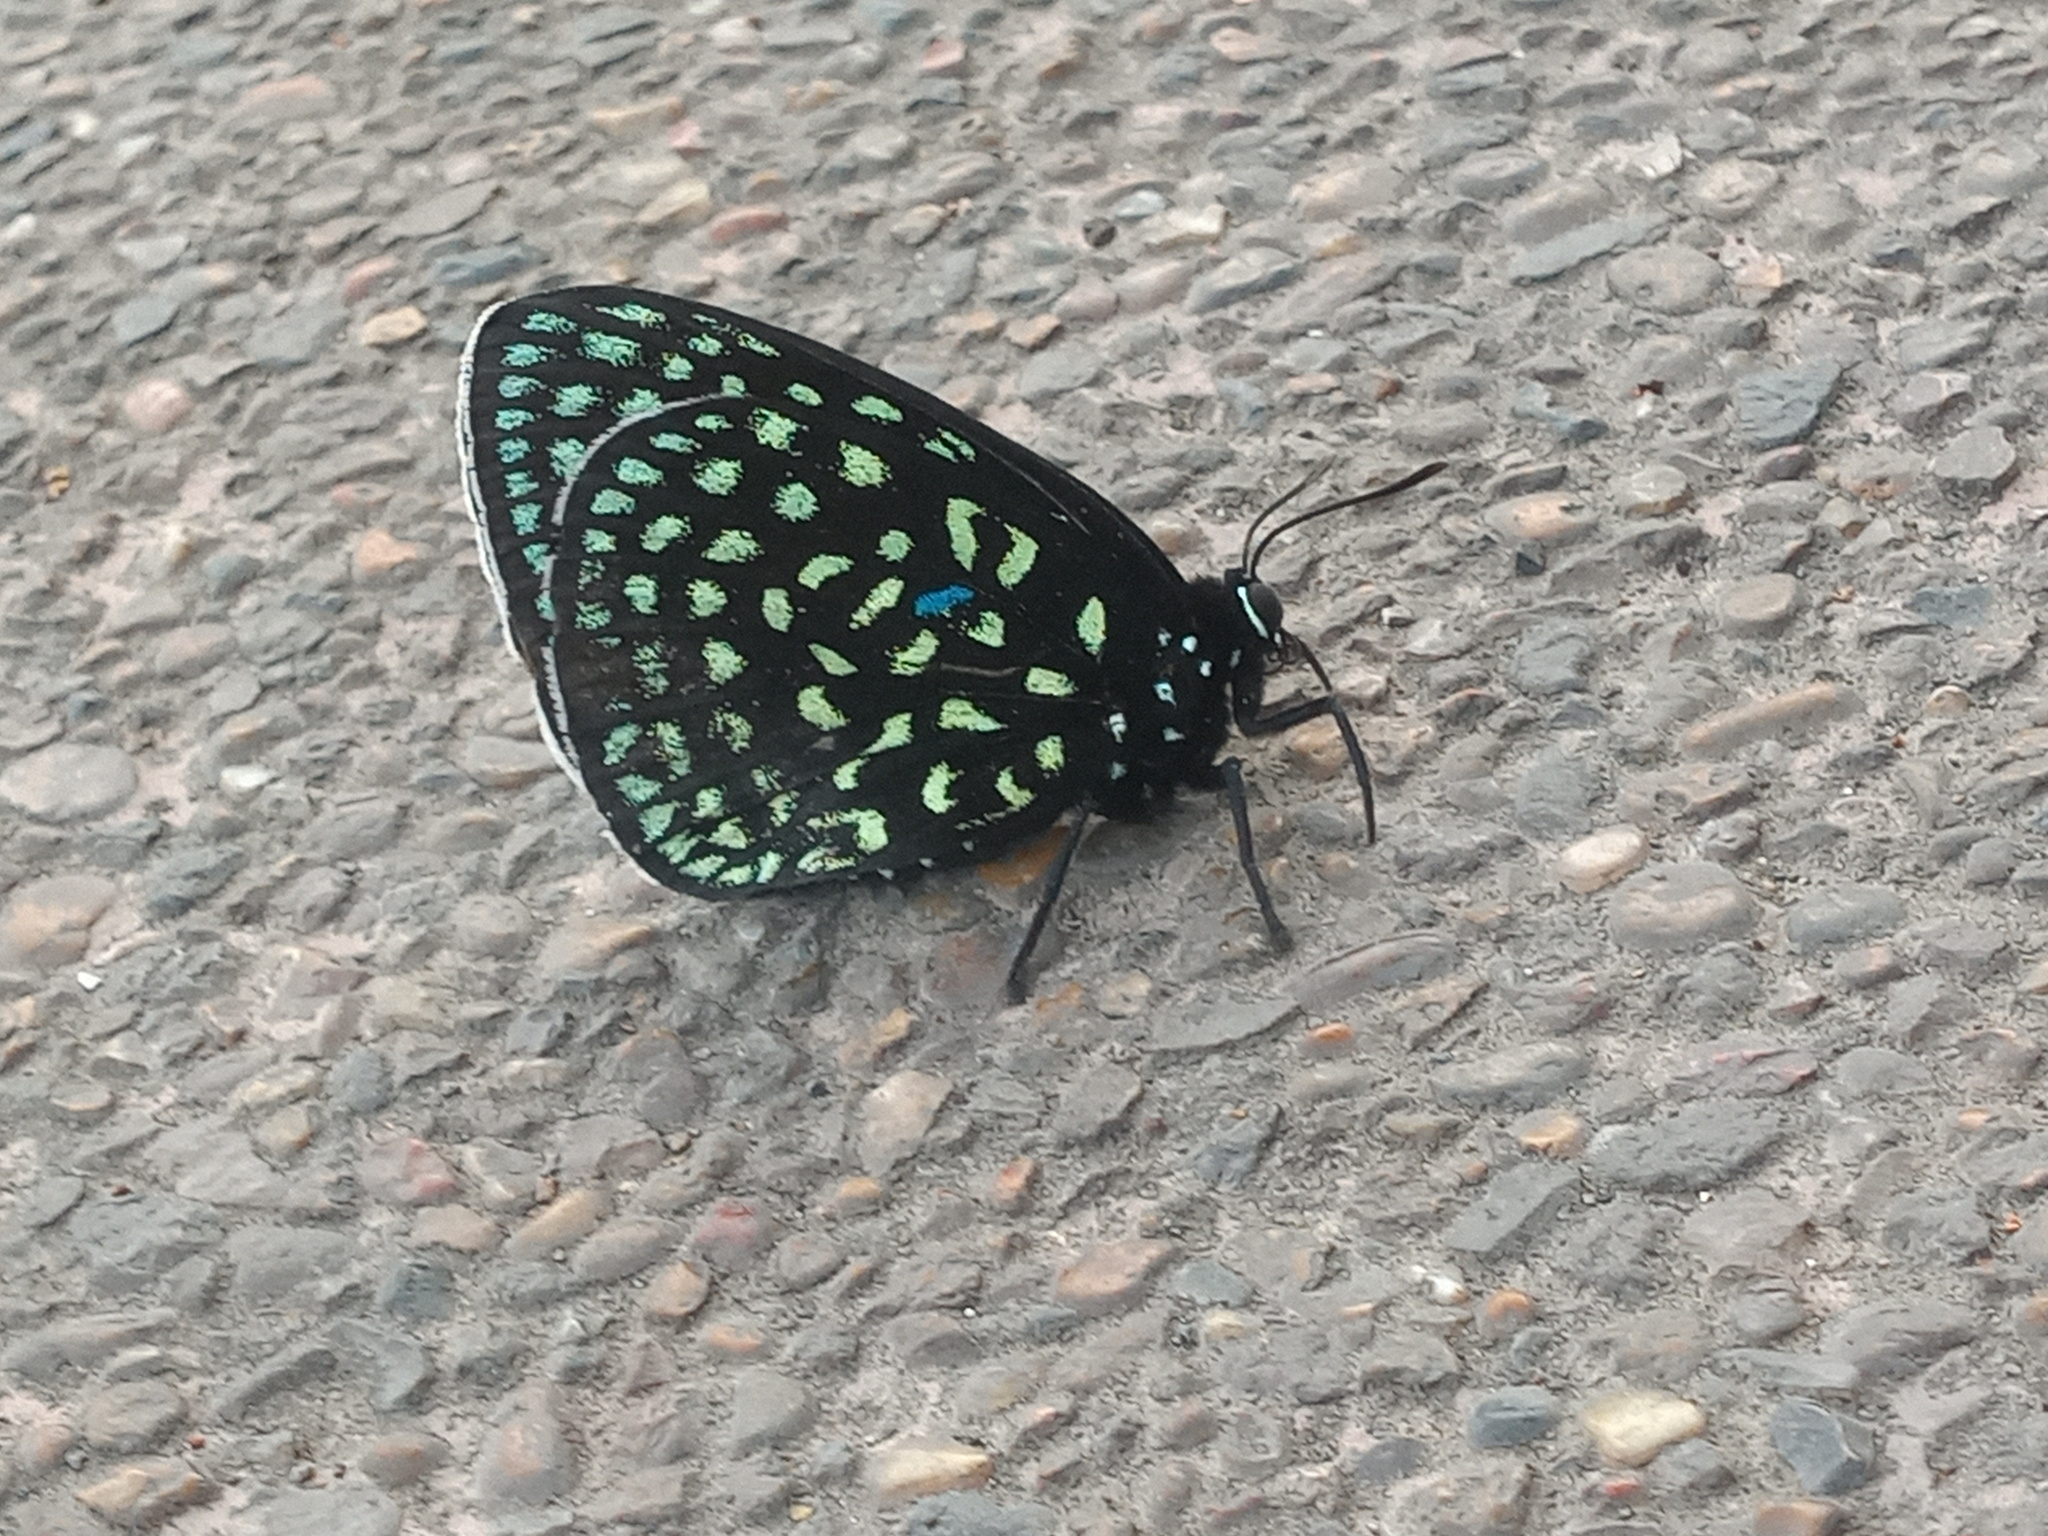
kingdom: Animalia
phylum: Arthropoda
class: Insecta
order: Lepidoptera
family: Lycaenidae
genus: Eumaeus
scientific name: Eumaeus childrenae
